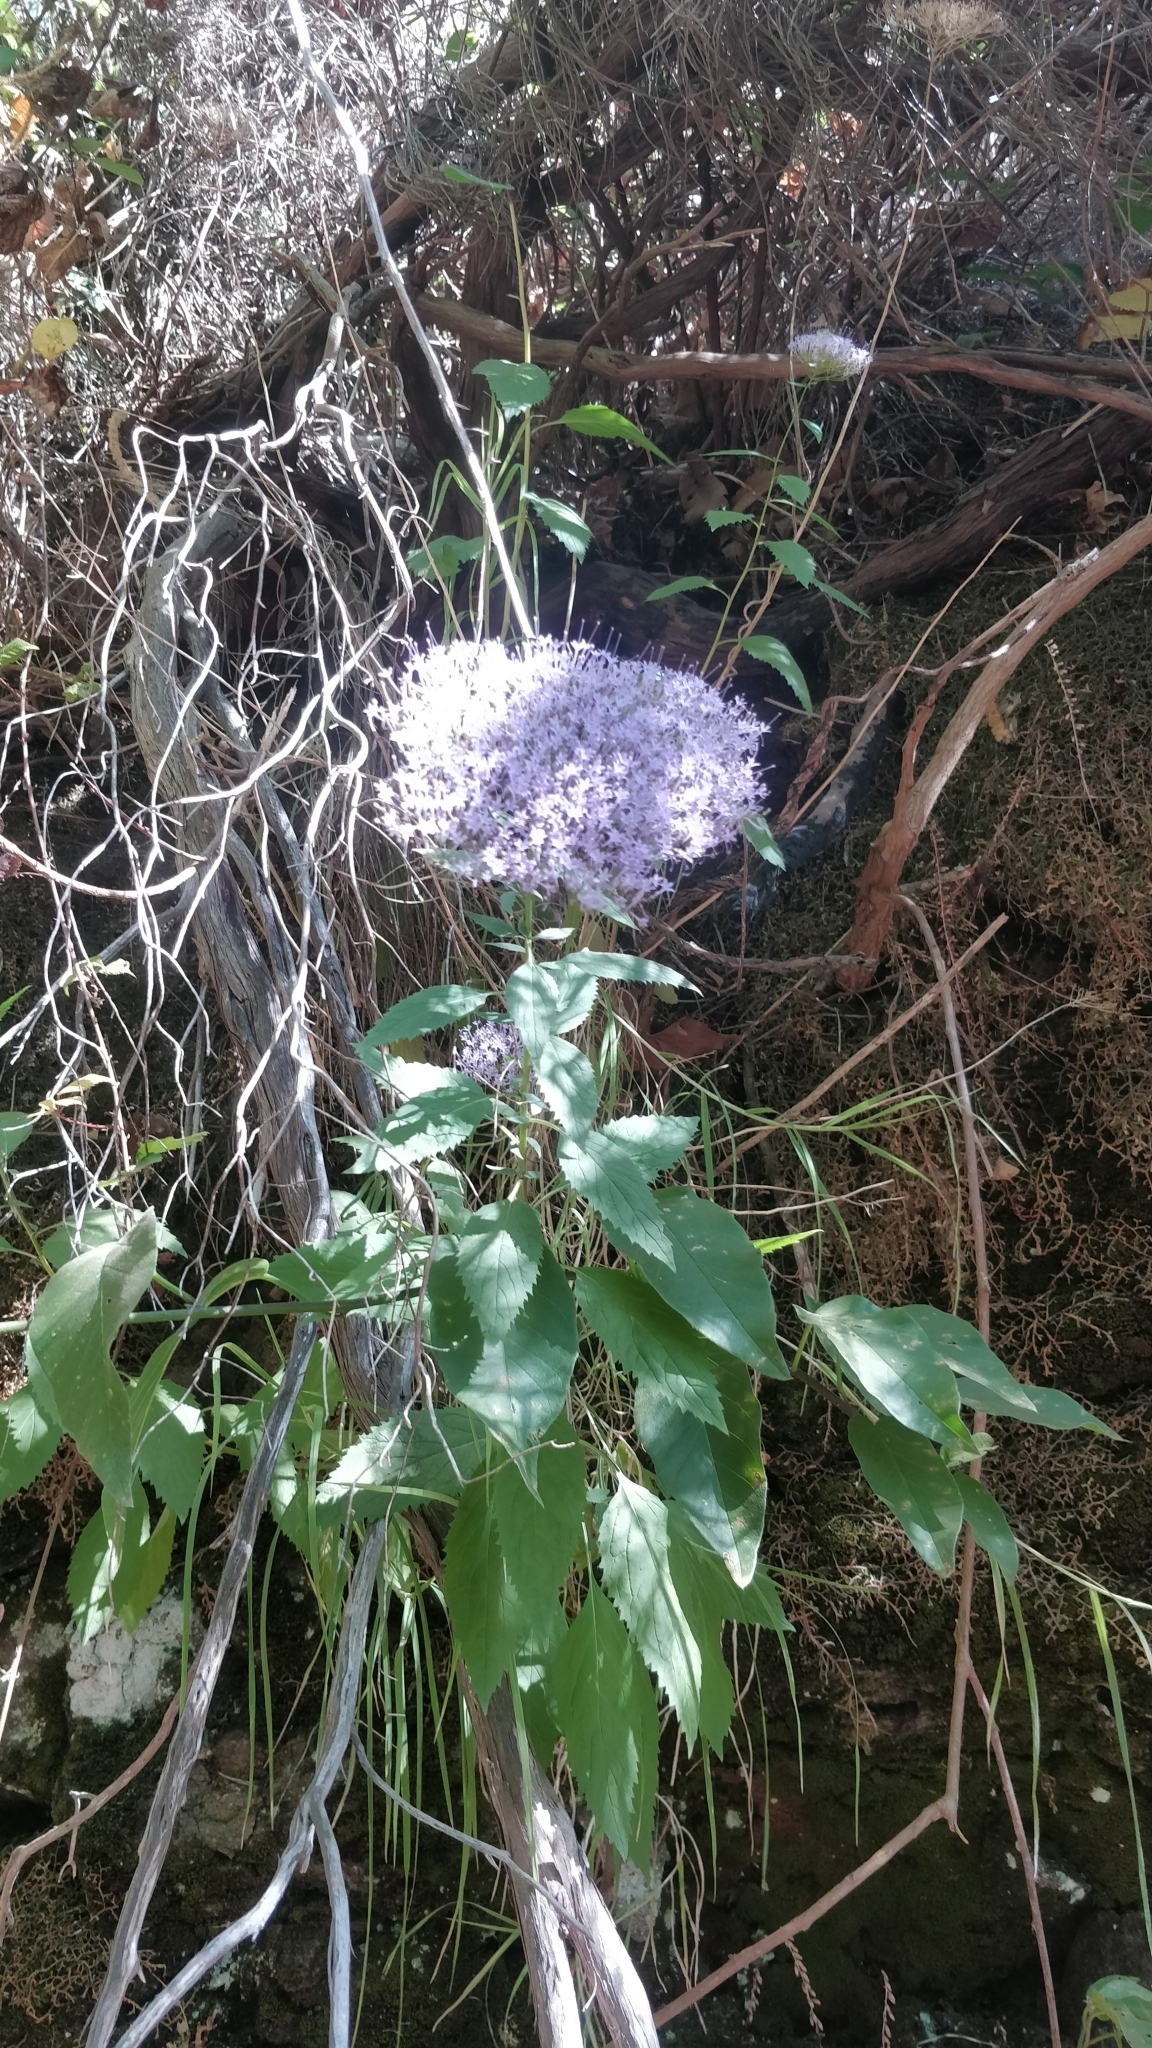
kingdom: Plantae
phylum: Tracheophyta
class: Magnoliopsida
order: Asterales
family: Campanulaceae
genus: Trachelium
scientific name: Trachelium caeruleum
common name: Throatwort
